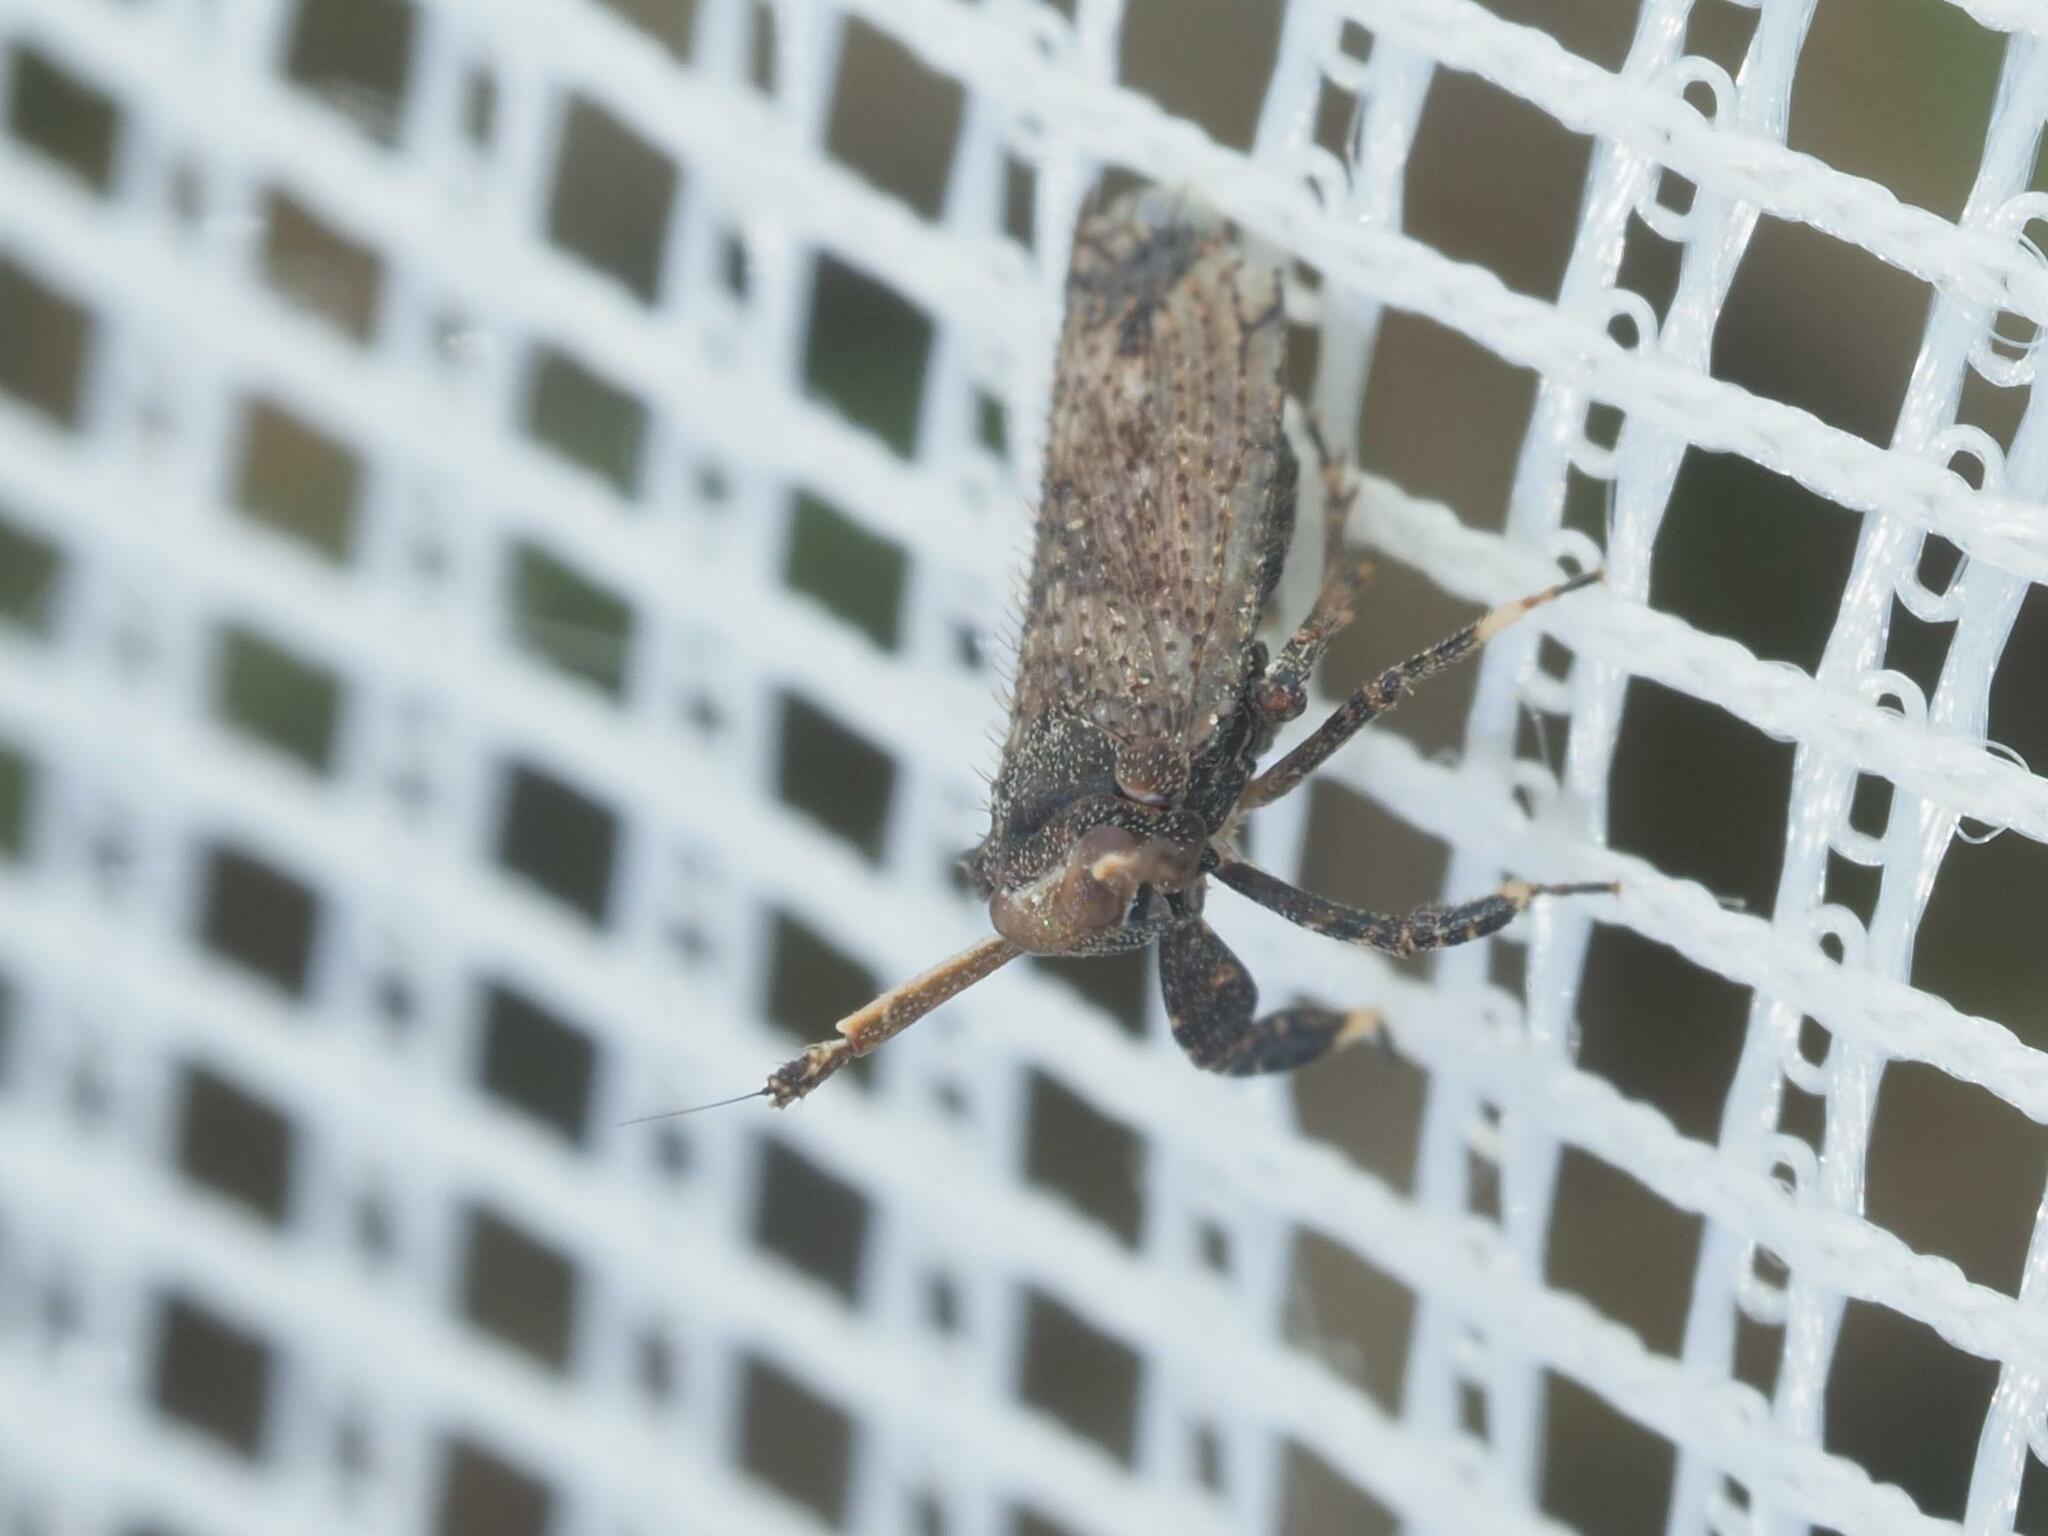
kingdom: Animalia
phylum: Arthropoda
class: Insecta
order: Hemiptera
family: Delphacidae
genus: Asiraca
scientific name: Asiraca clavicornis
